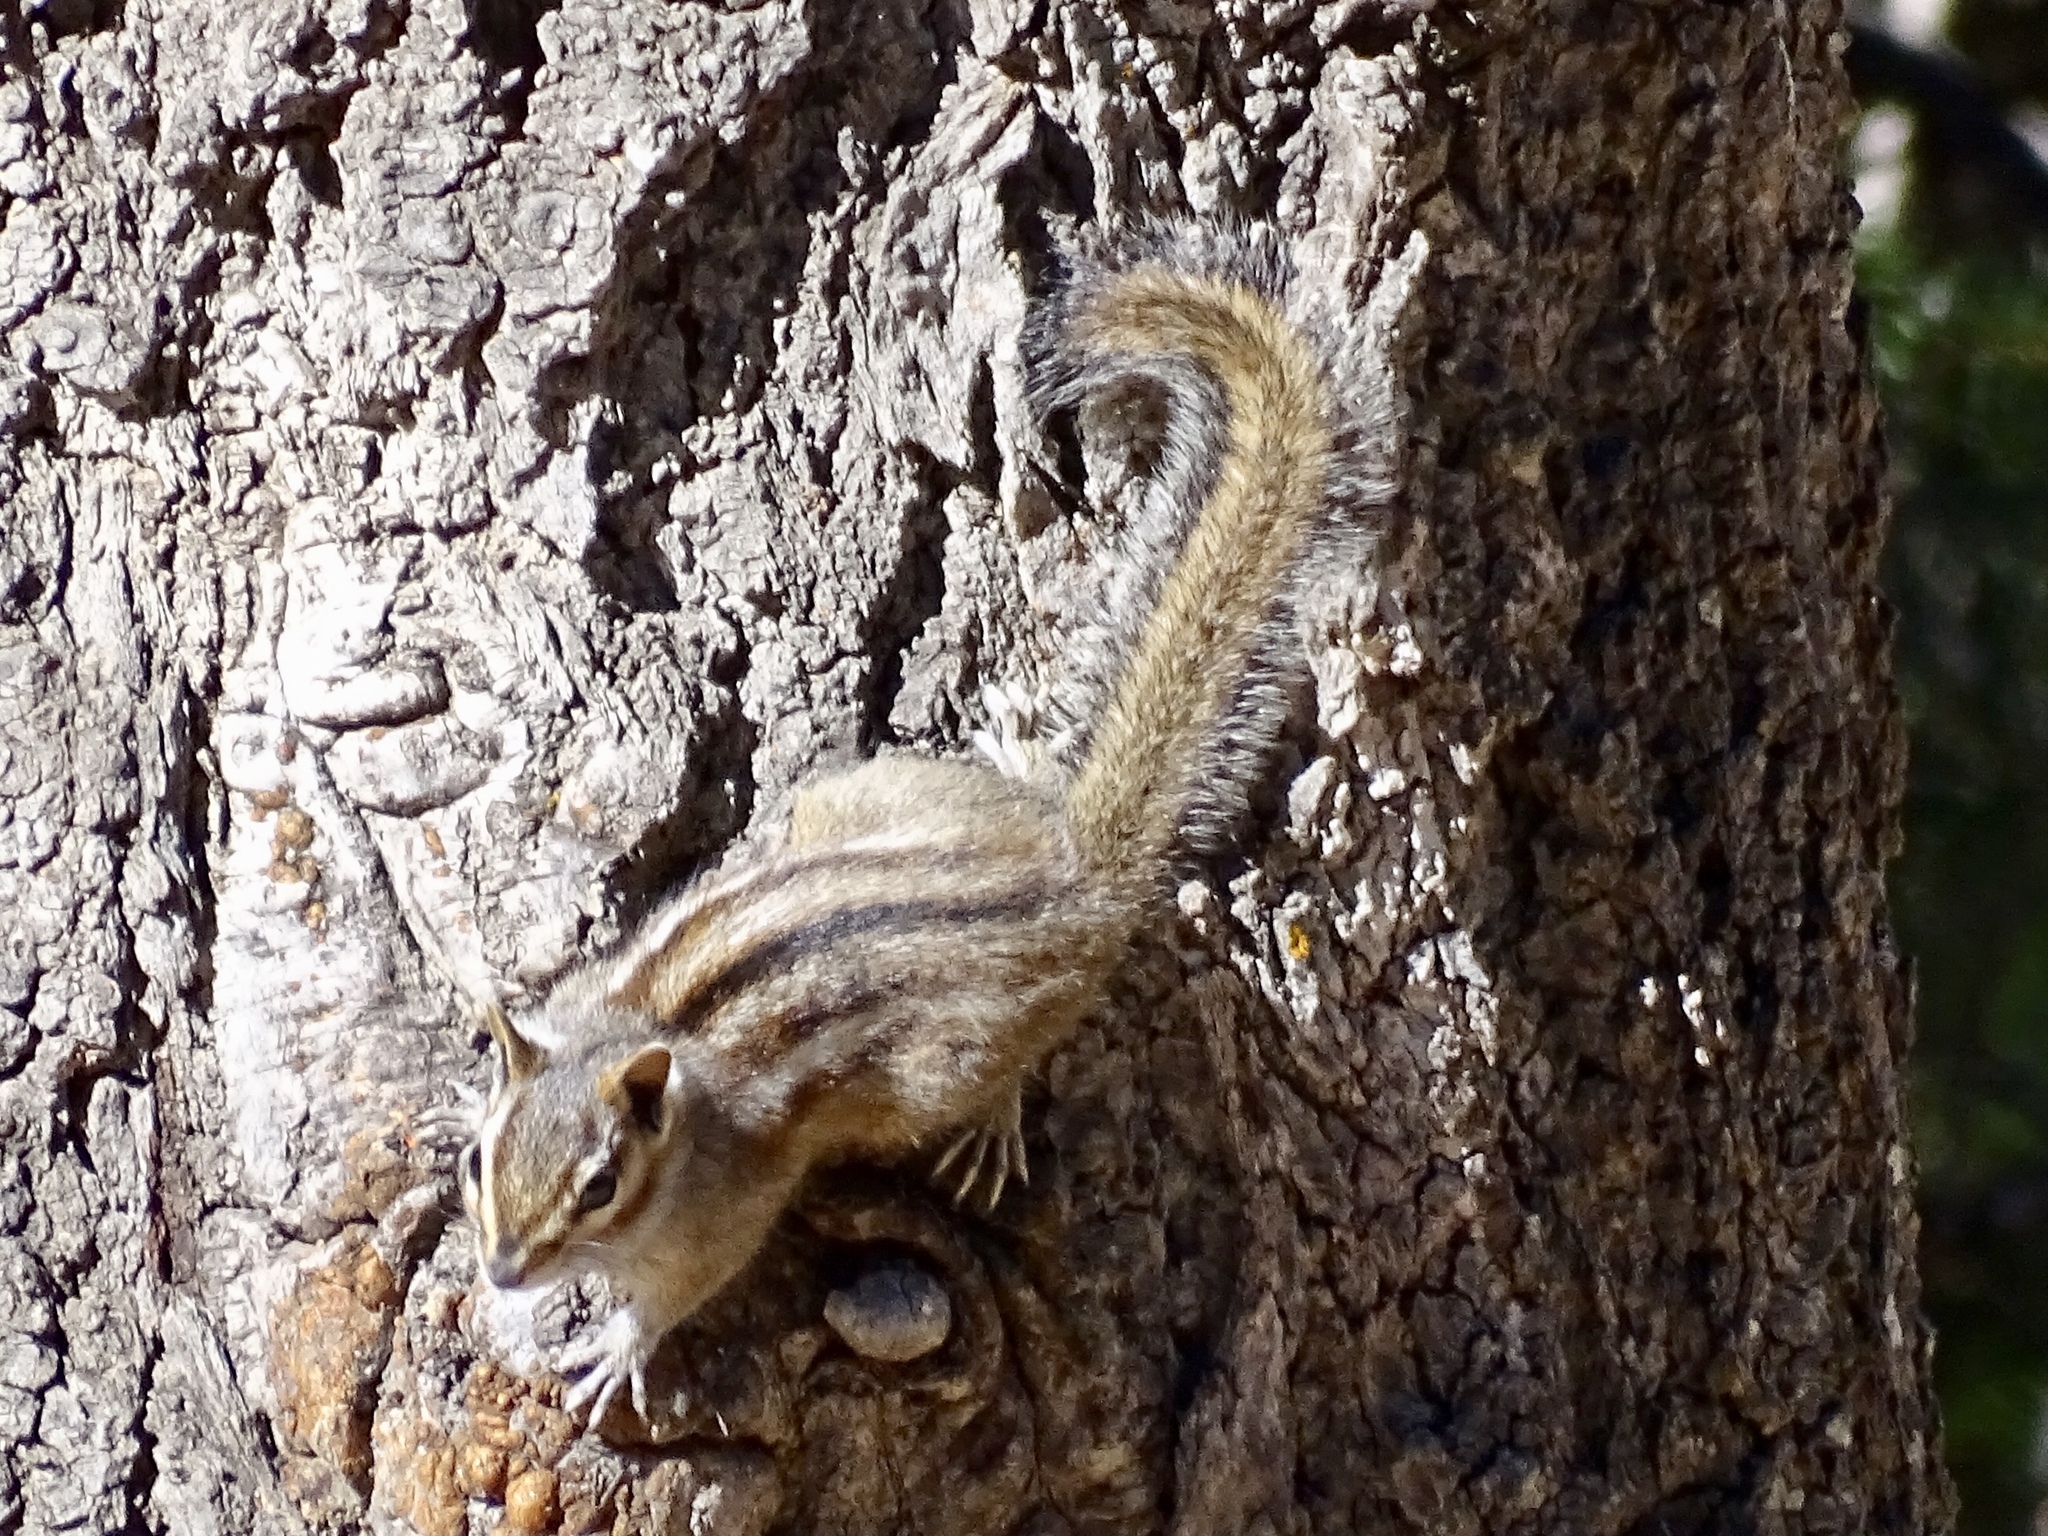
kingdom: Animalia
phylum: Chordata
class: Mammalia
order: Rodentia
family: Sciuridae
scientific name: Sciuridae
